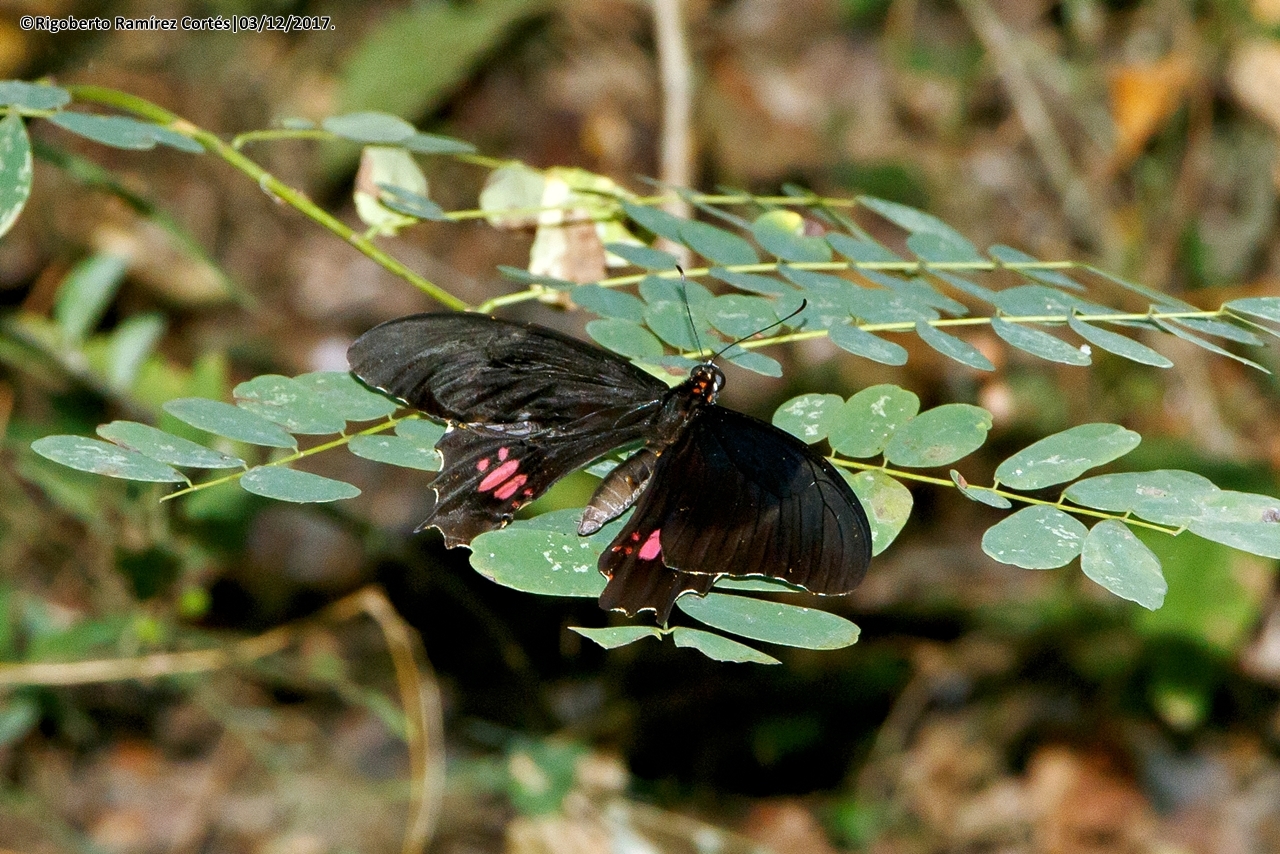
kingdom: Animalia
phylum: Arthropoda
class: Insecta
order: Lepidoptera
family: Papilionidae
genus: Papilio
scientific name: Papilio anchisiades
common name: Idaes swallowtail
